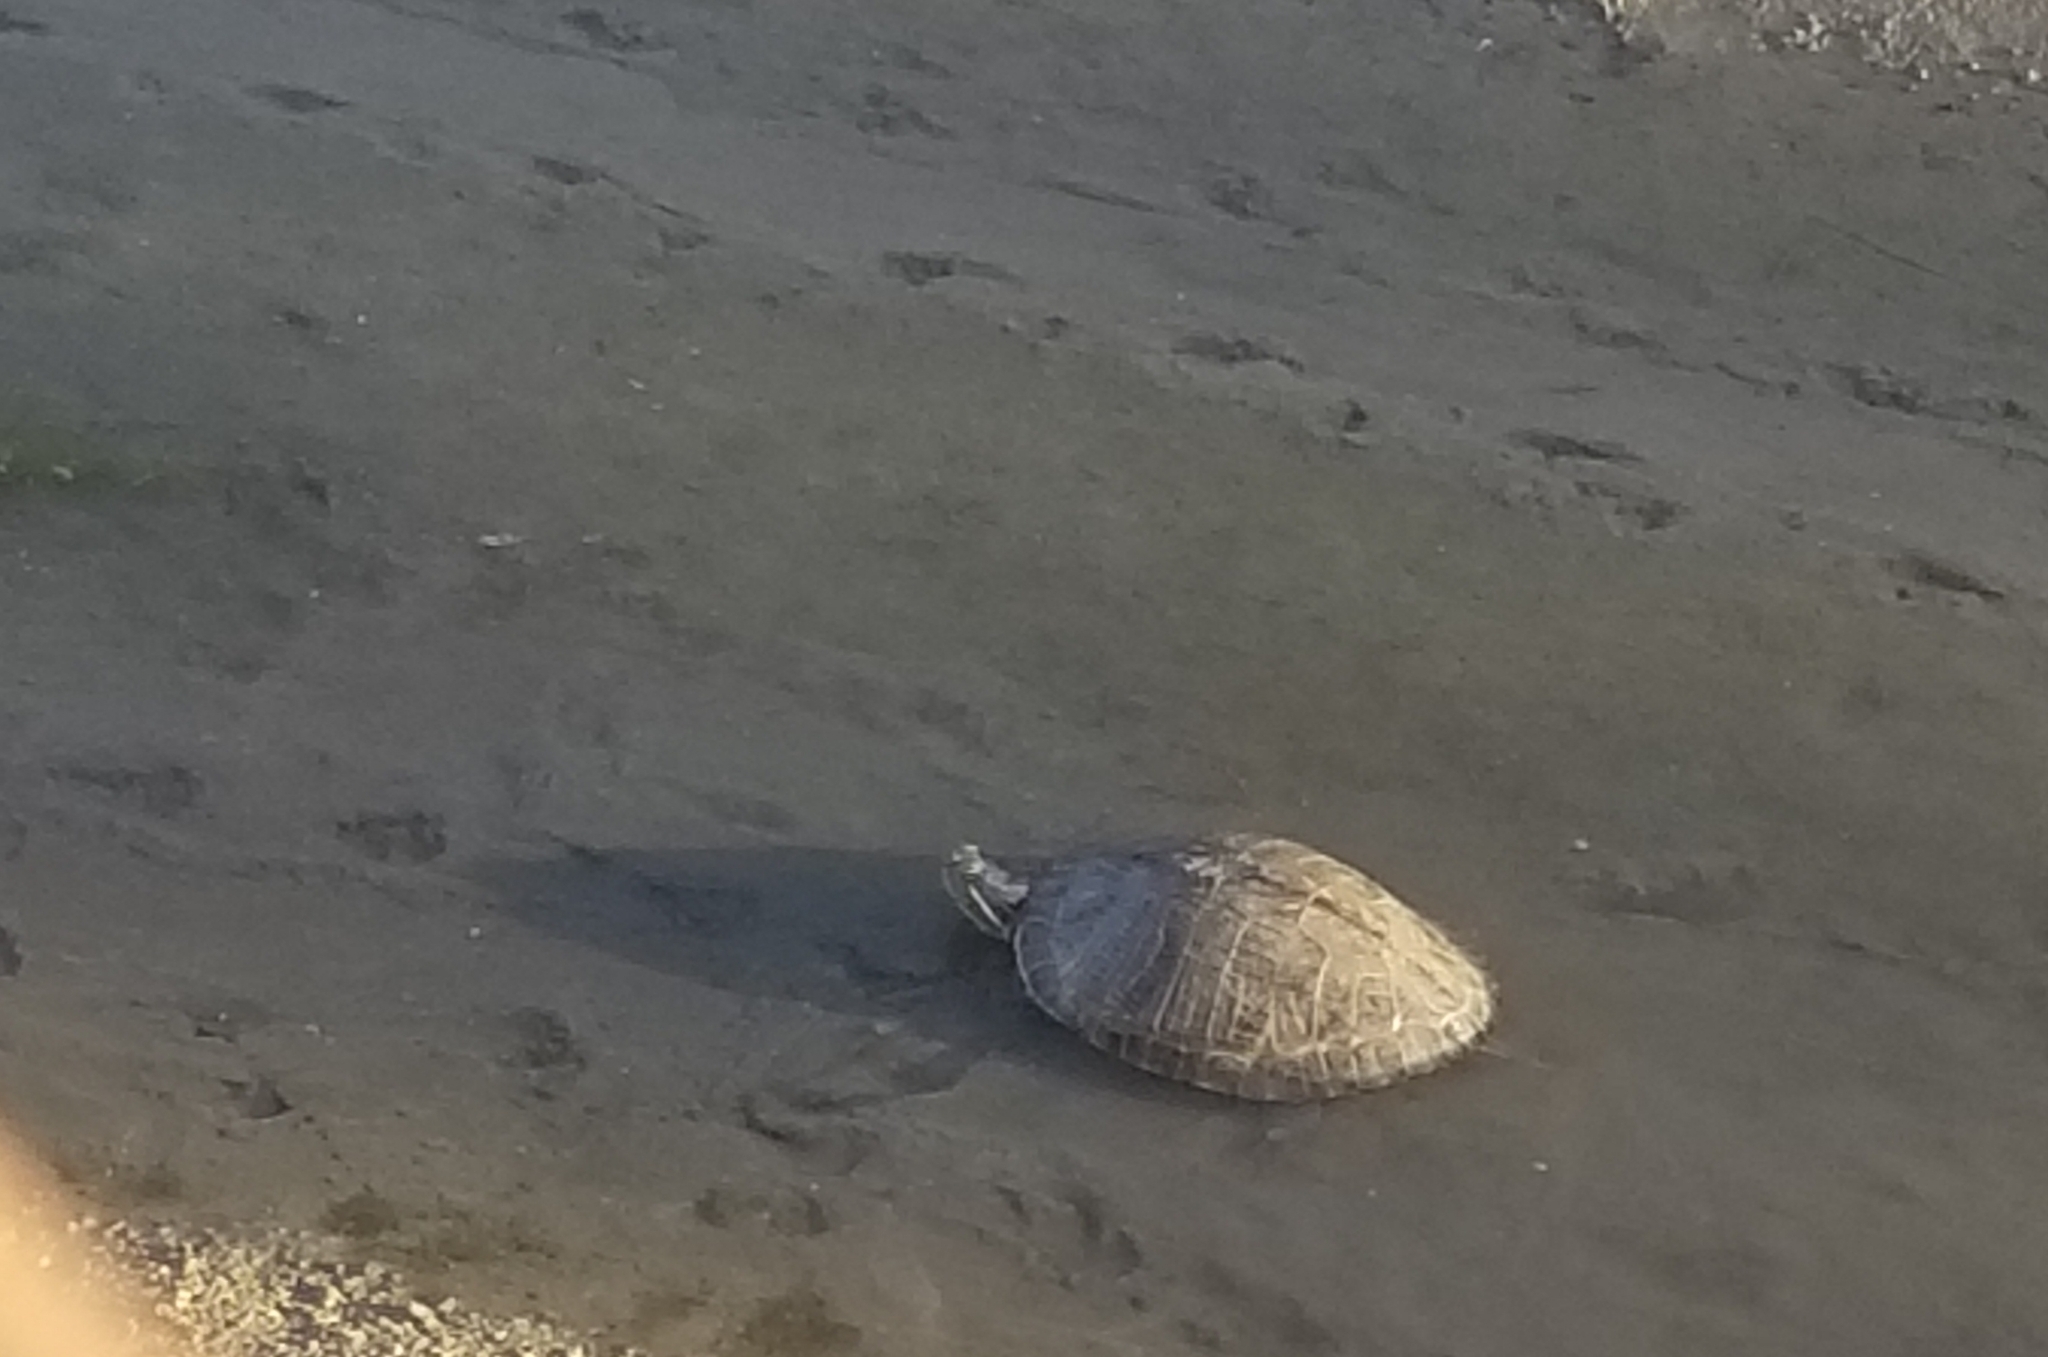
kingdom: Animalia
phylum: Chordata
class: Testudines
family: Emydidae
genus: Trachemys
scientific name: Trachemys scripta
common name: Slider
